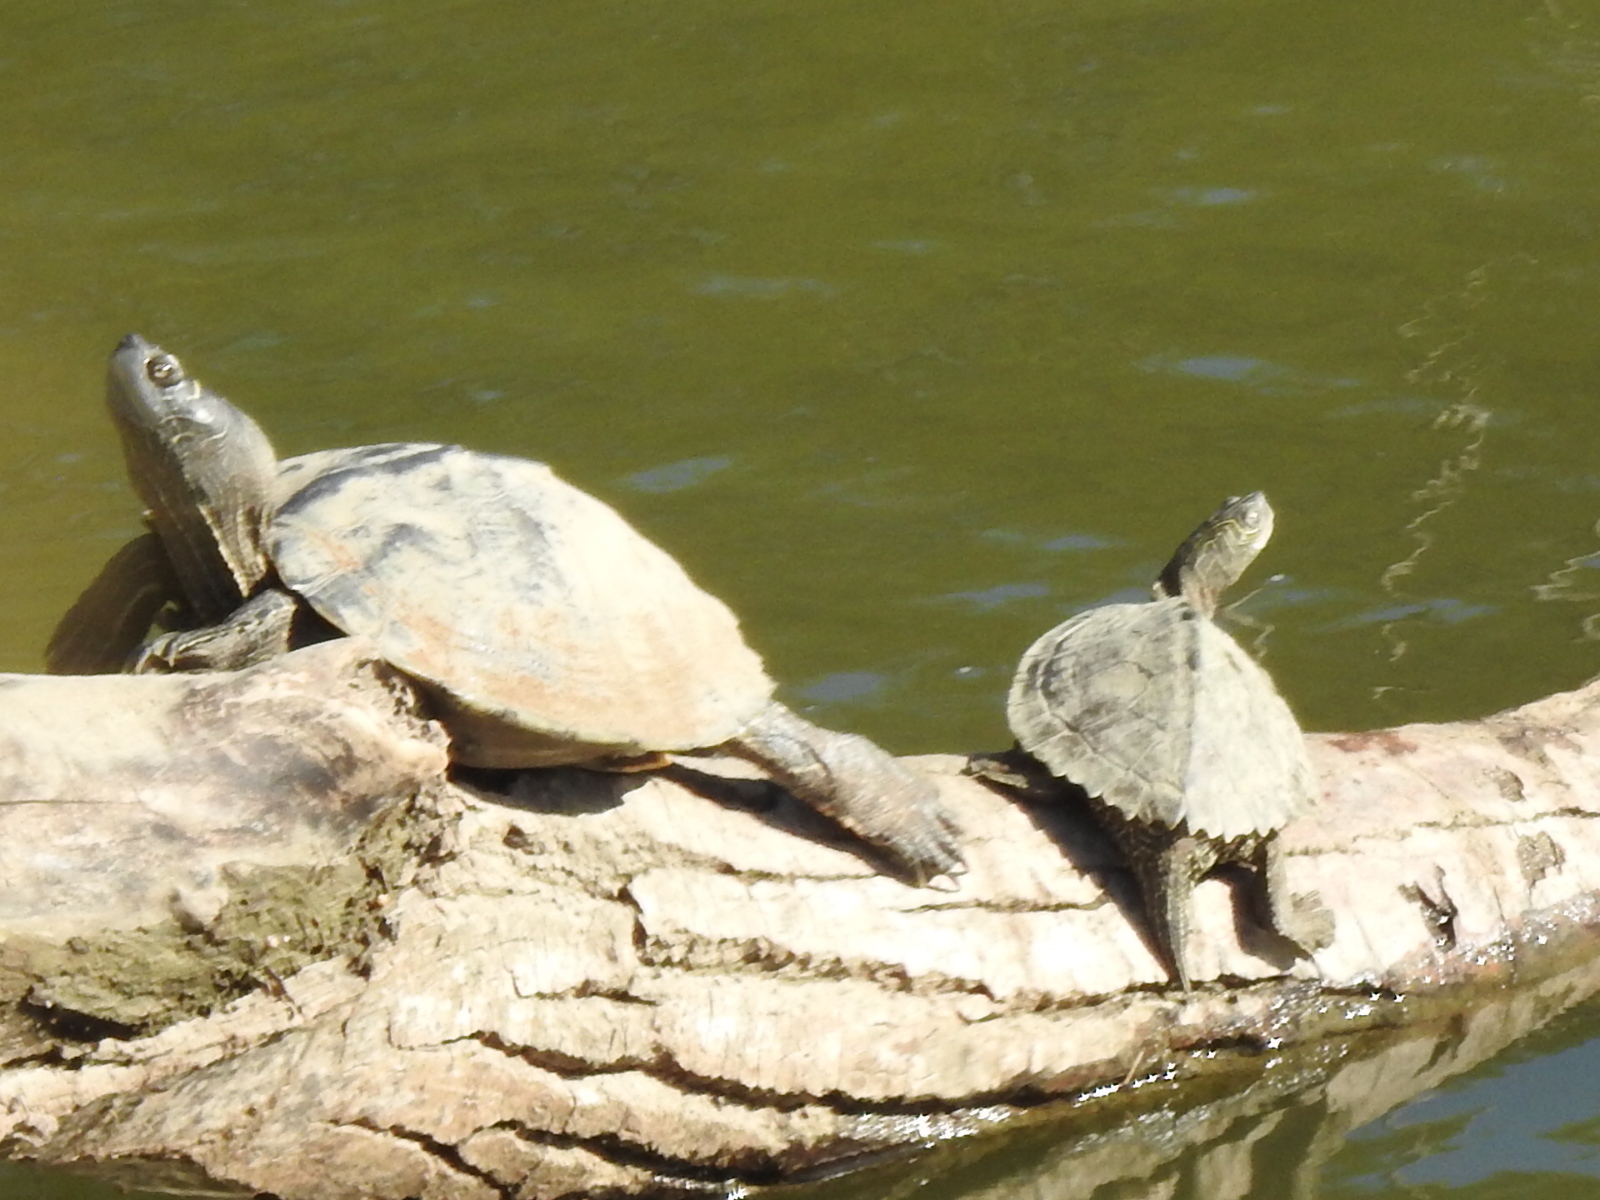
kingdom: Animalia
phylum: Chordata
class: Testudines
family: Emydidae
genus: Graptemys
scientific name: Graptemys pseudogeographica
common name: False map turtle
